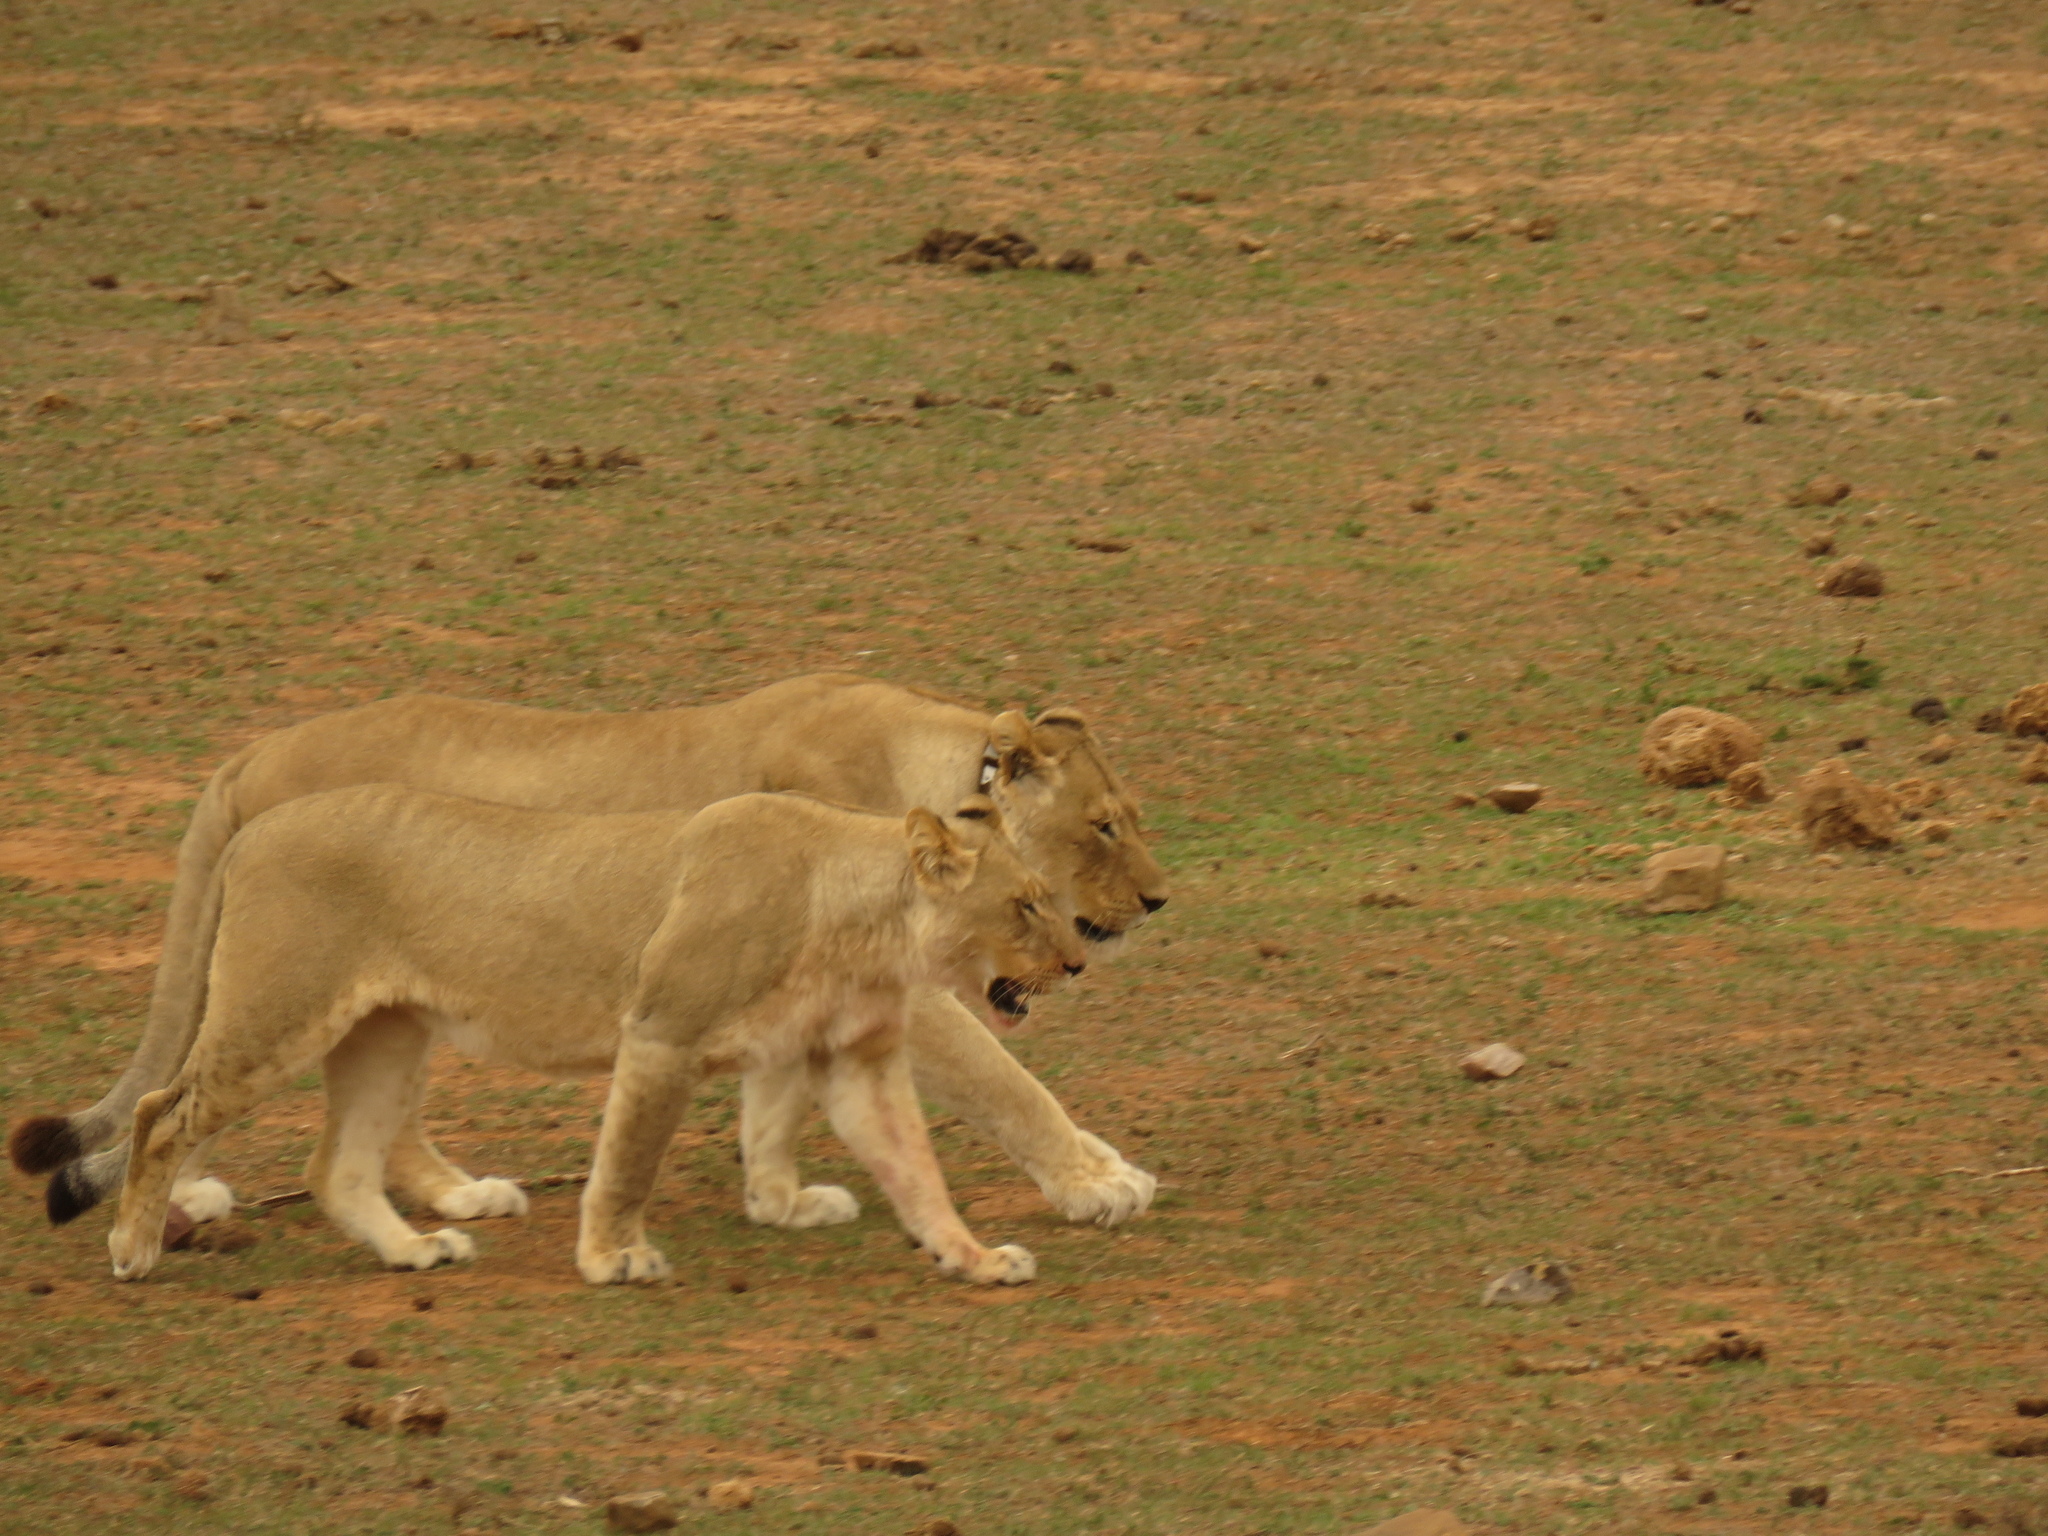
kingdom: Animalia
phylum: Chordata
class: Mammalia
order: Carnivora
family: Felidae
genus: Panthera
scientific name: Panthera leo
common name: Lion
